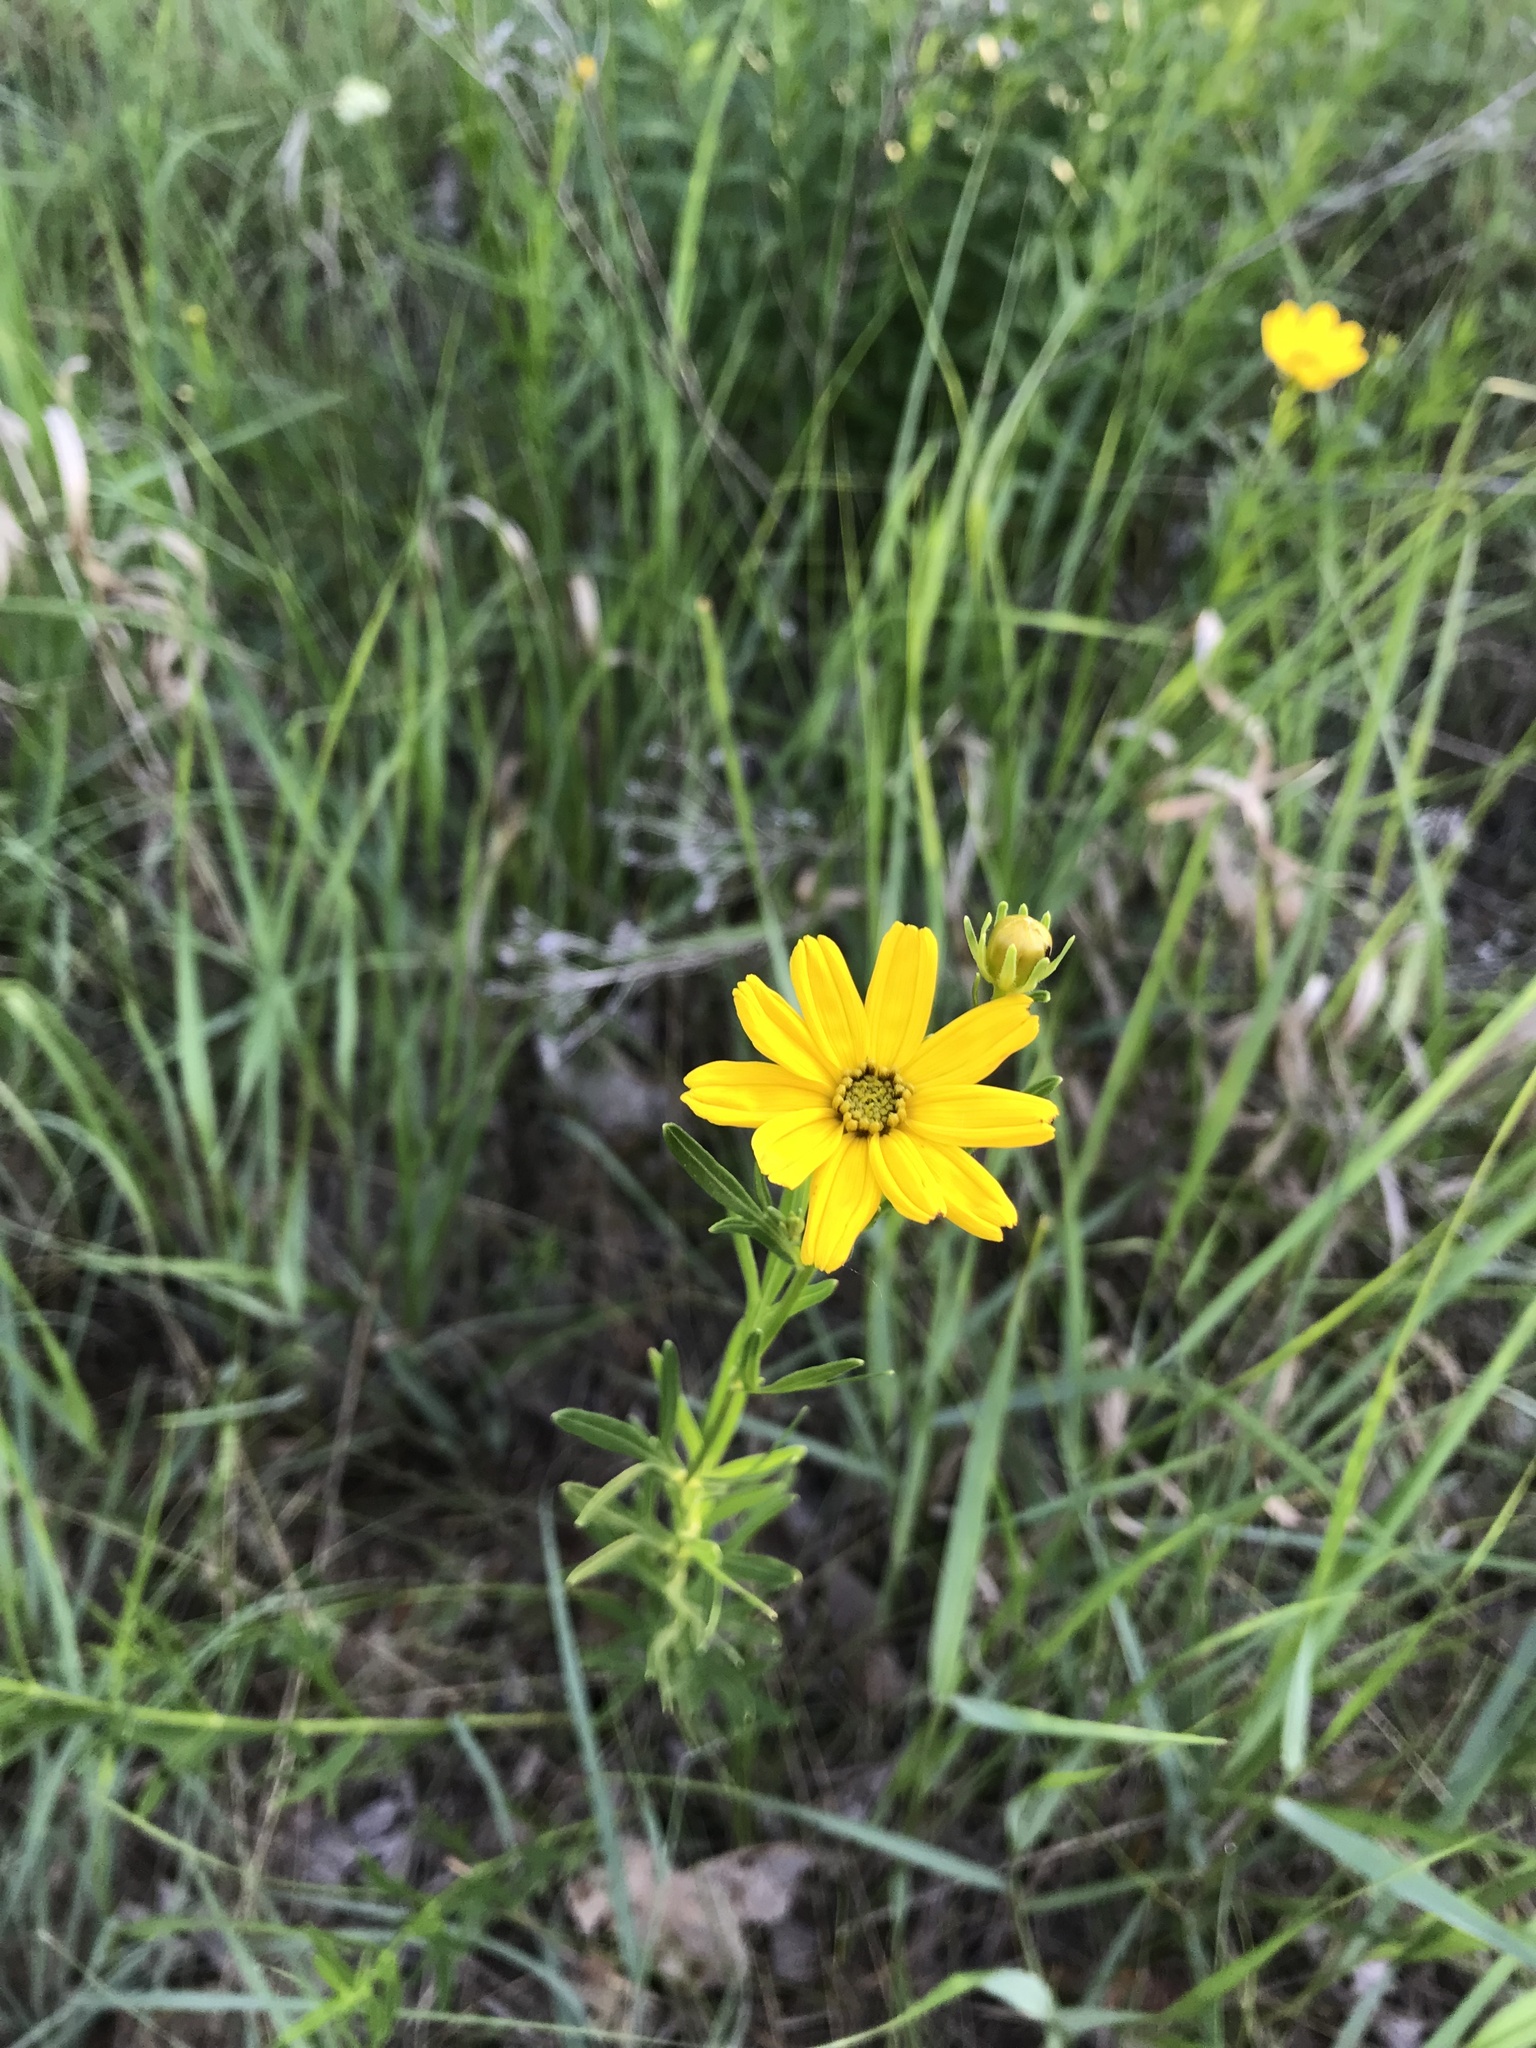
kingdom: Plantae
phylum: Tracheophyta
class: Magnoliopsida
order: Asterales
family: Asteraceae
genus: Coreopsis
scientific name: Coreopsis palmata
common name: Prairie coreopsis
